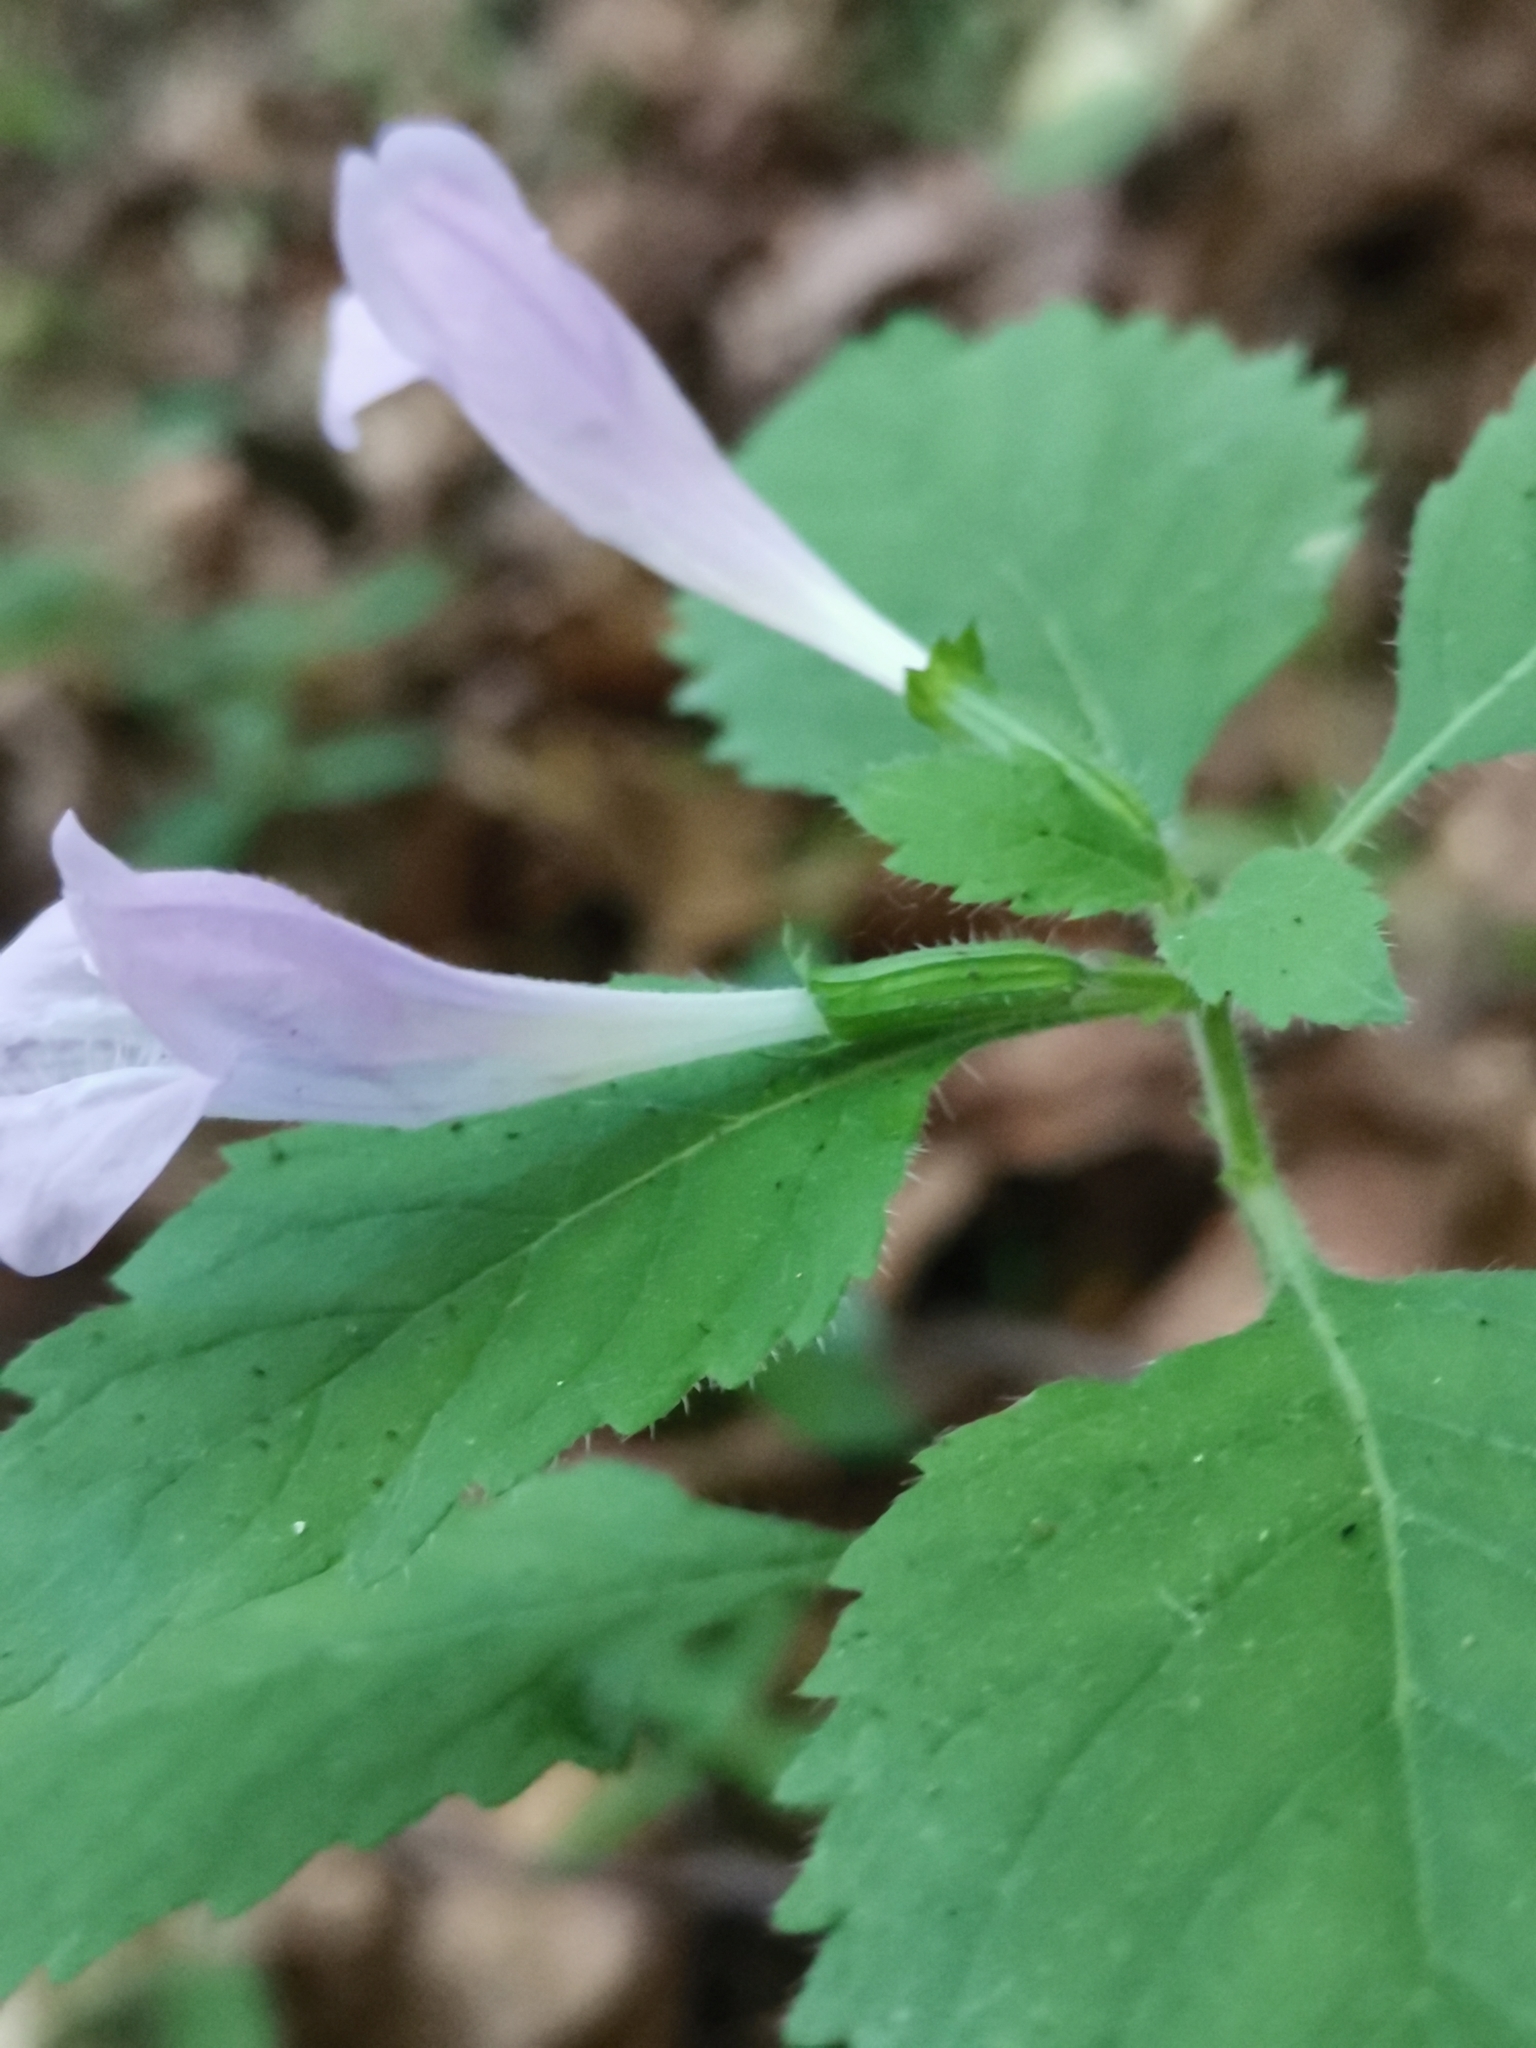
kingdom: Plantae
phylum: Tracheophyta
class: Magnoliopsida
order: Lamiales
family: Lamiaceae
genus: Clinopodium
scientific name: Clinopodium grandiflorum
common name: Greater calamint
